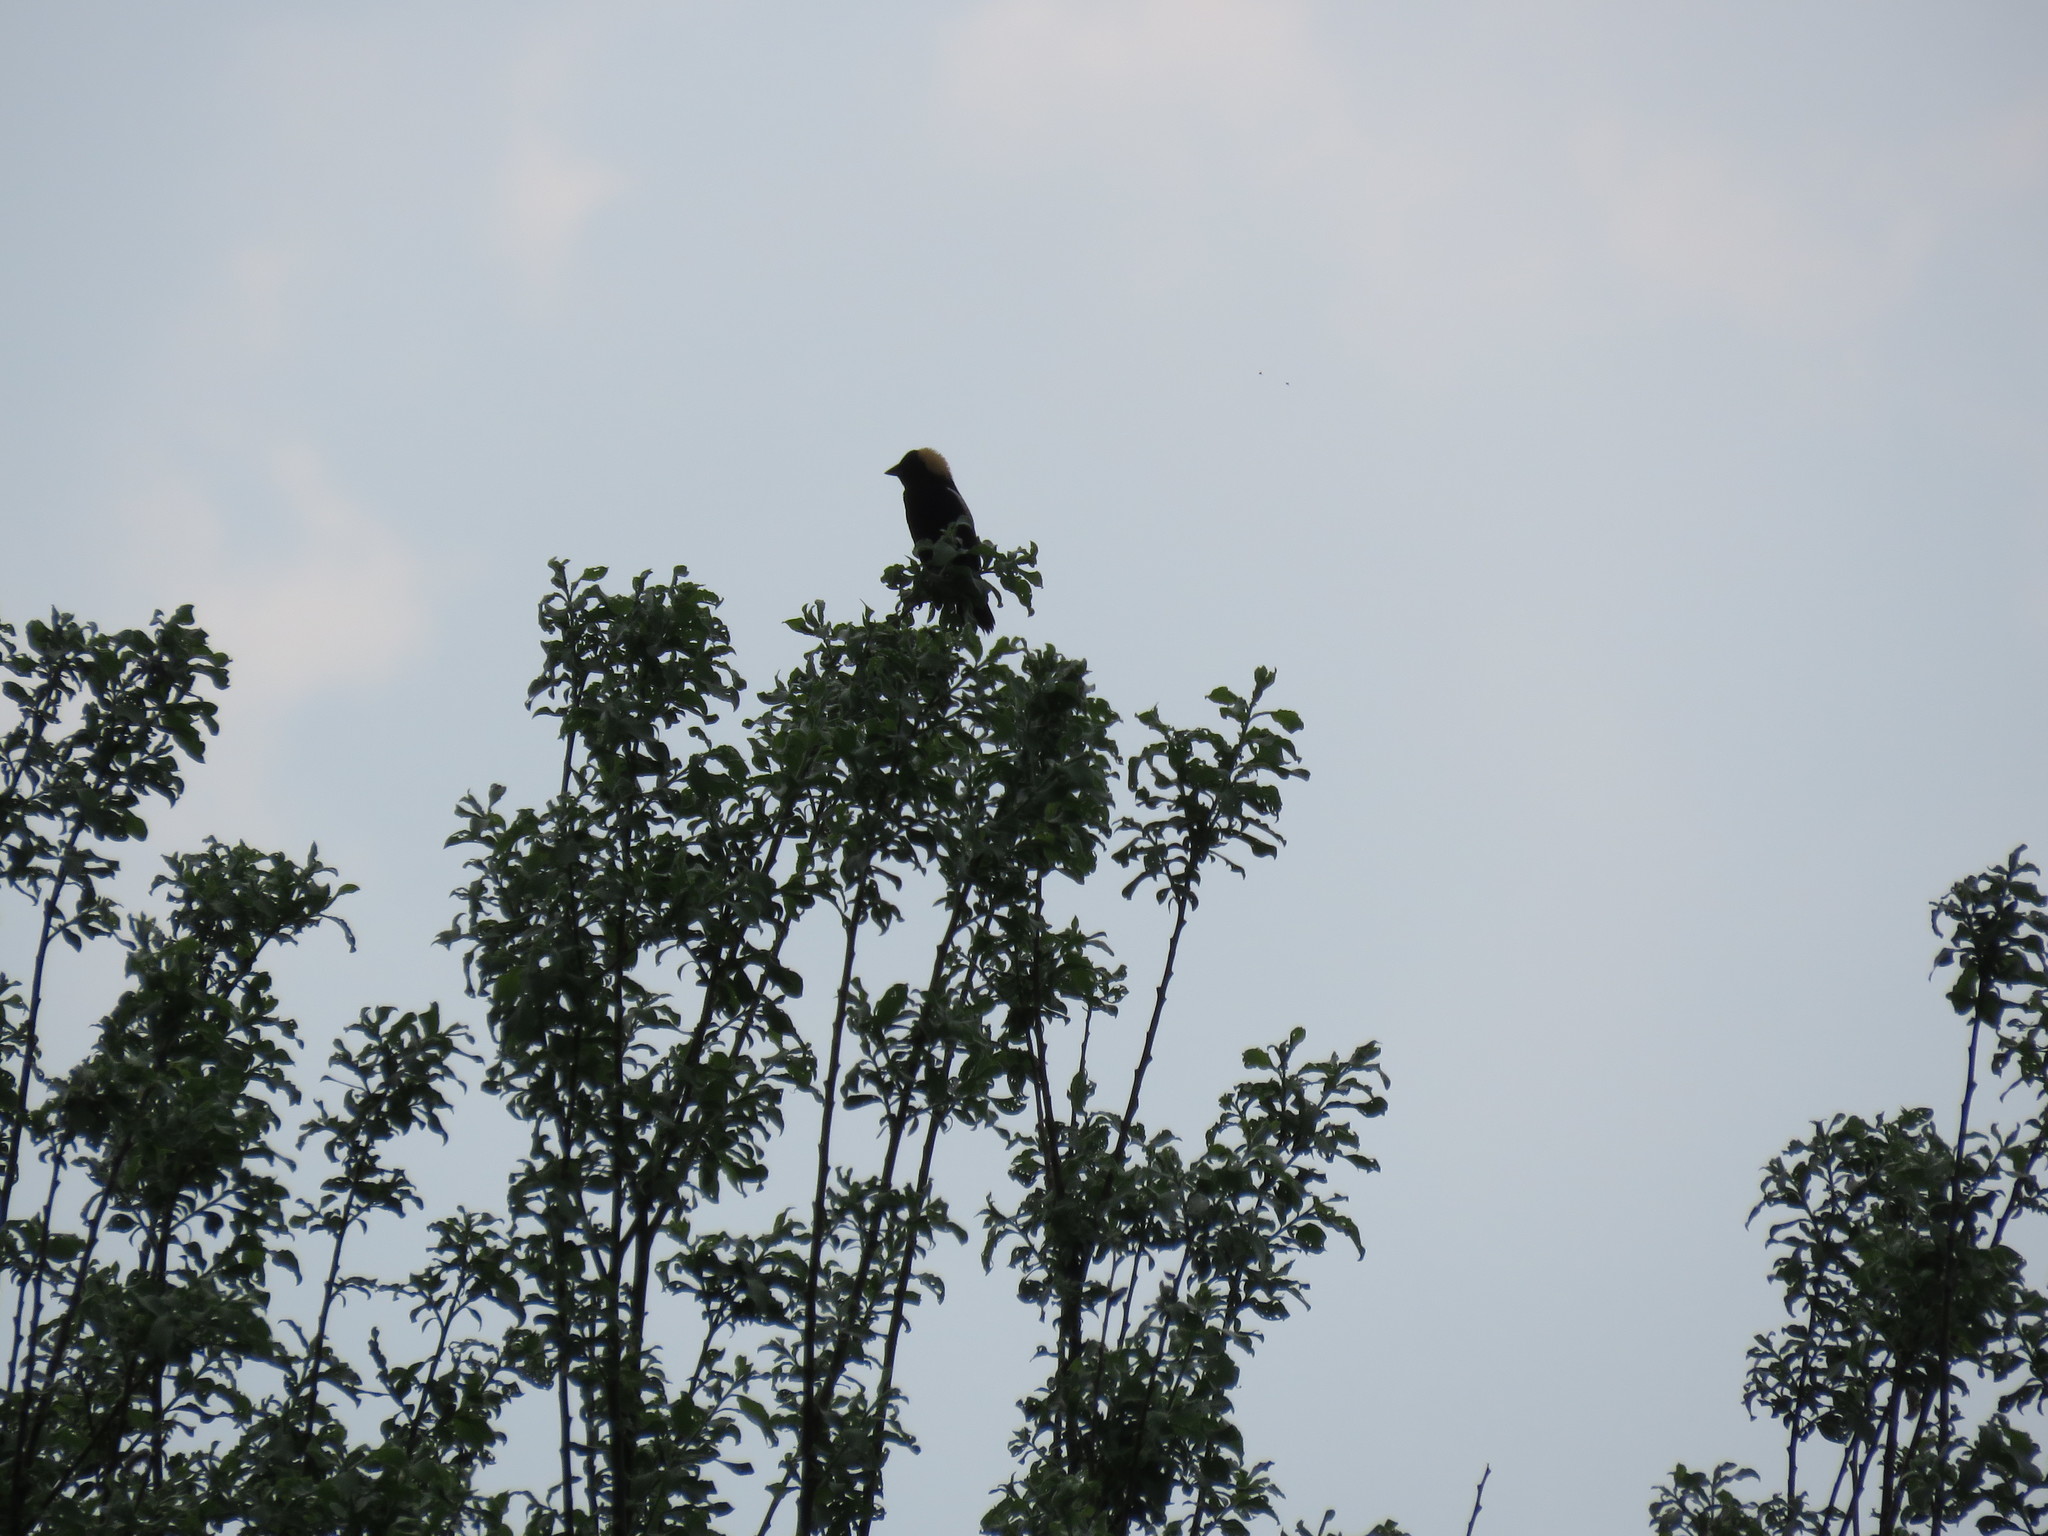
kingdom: Animalia
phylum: Chordata
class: Aves
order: Passeriformes
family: Icteridae
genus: Dolichonyx
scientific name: Dolichonyx oryzivorus
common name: Bobolink
